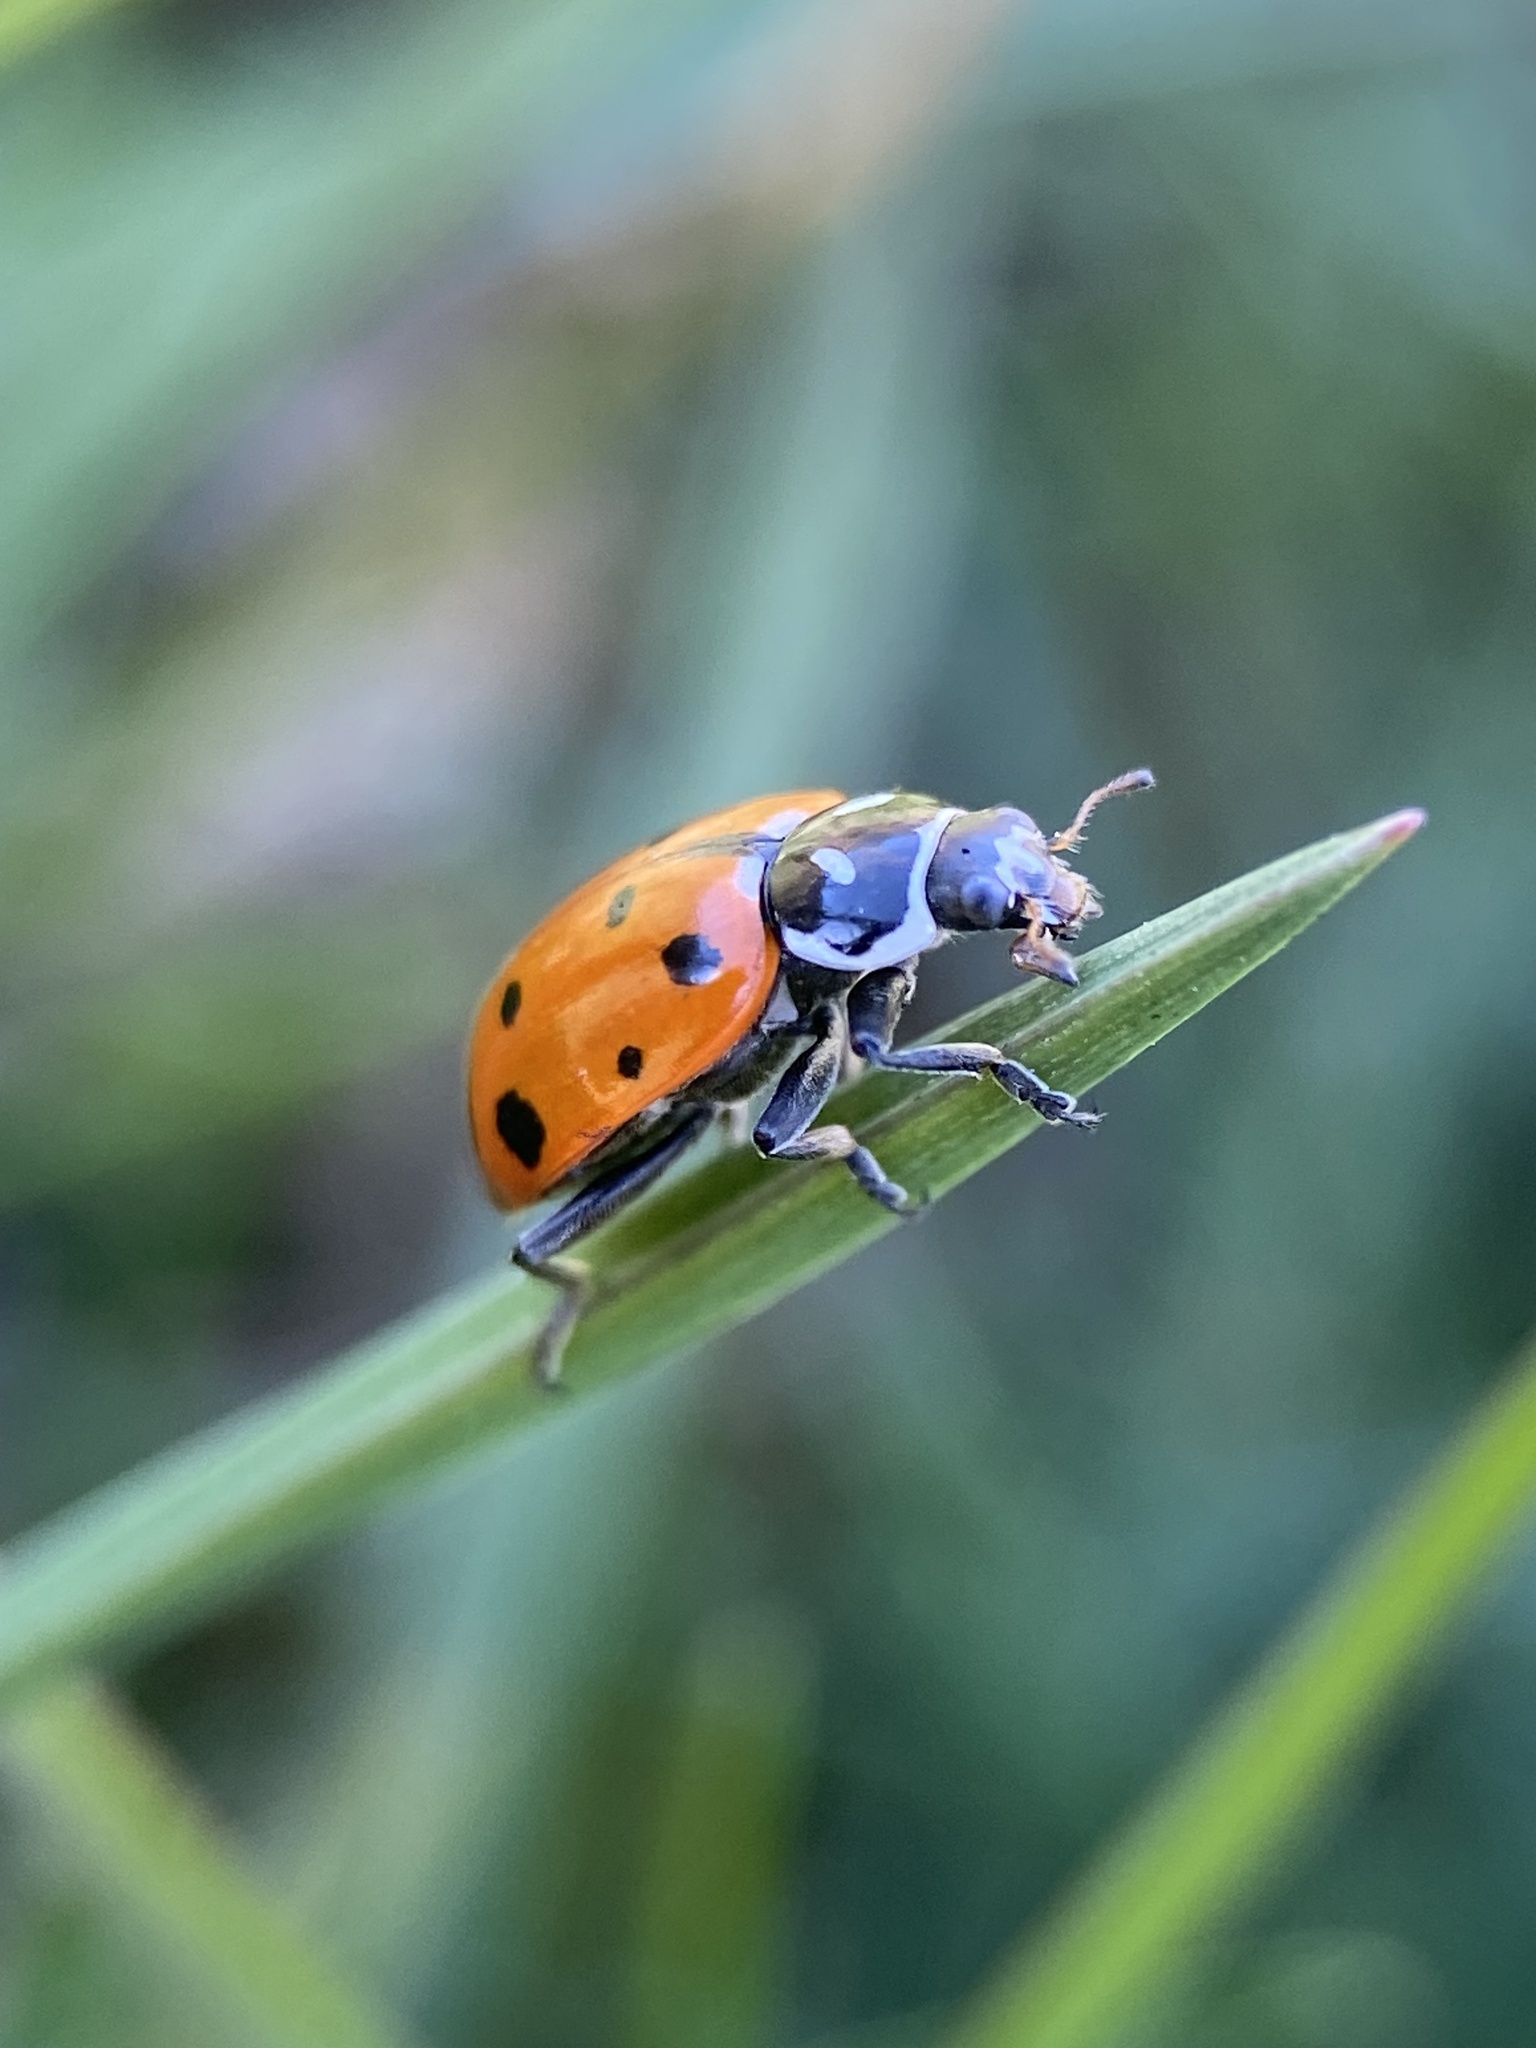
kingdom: Animalia
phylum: Arthropoda
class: Insecta
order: Coleoptera
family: Coccinellidae
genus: Hippodamia
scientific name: Hippodamia convergens
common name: Convergent lady beetle
